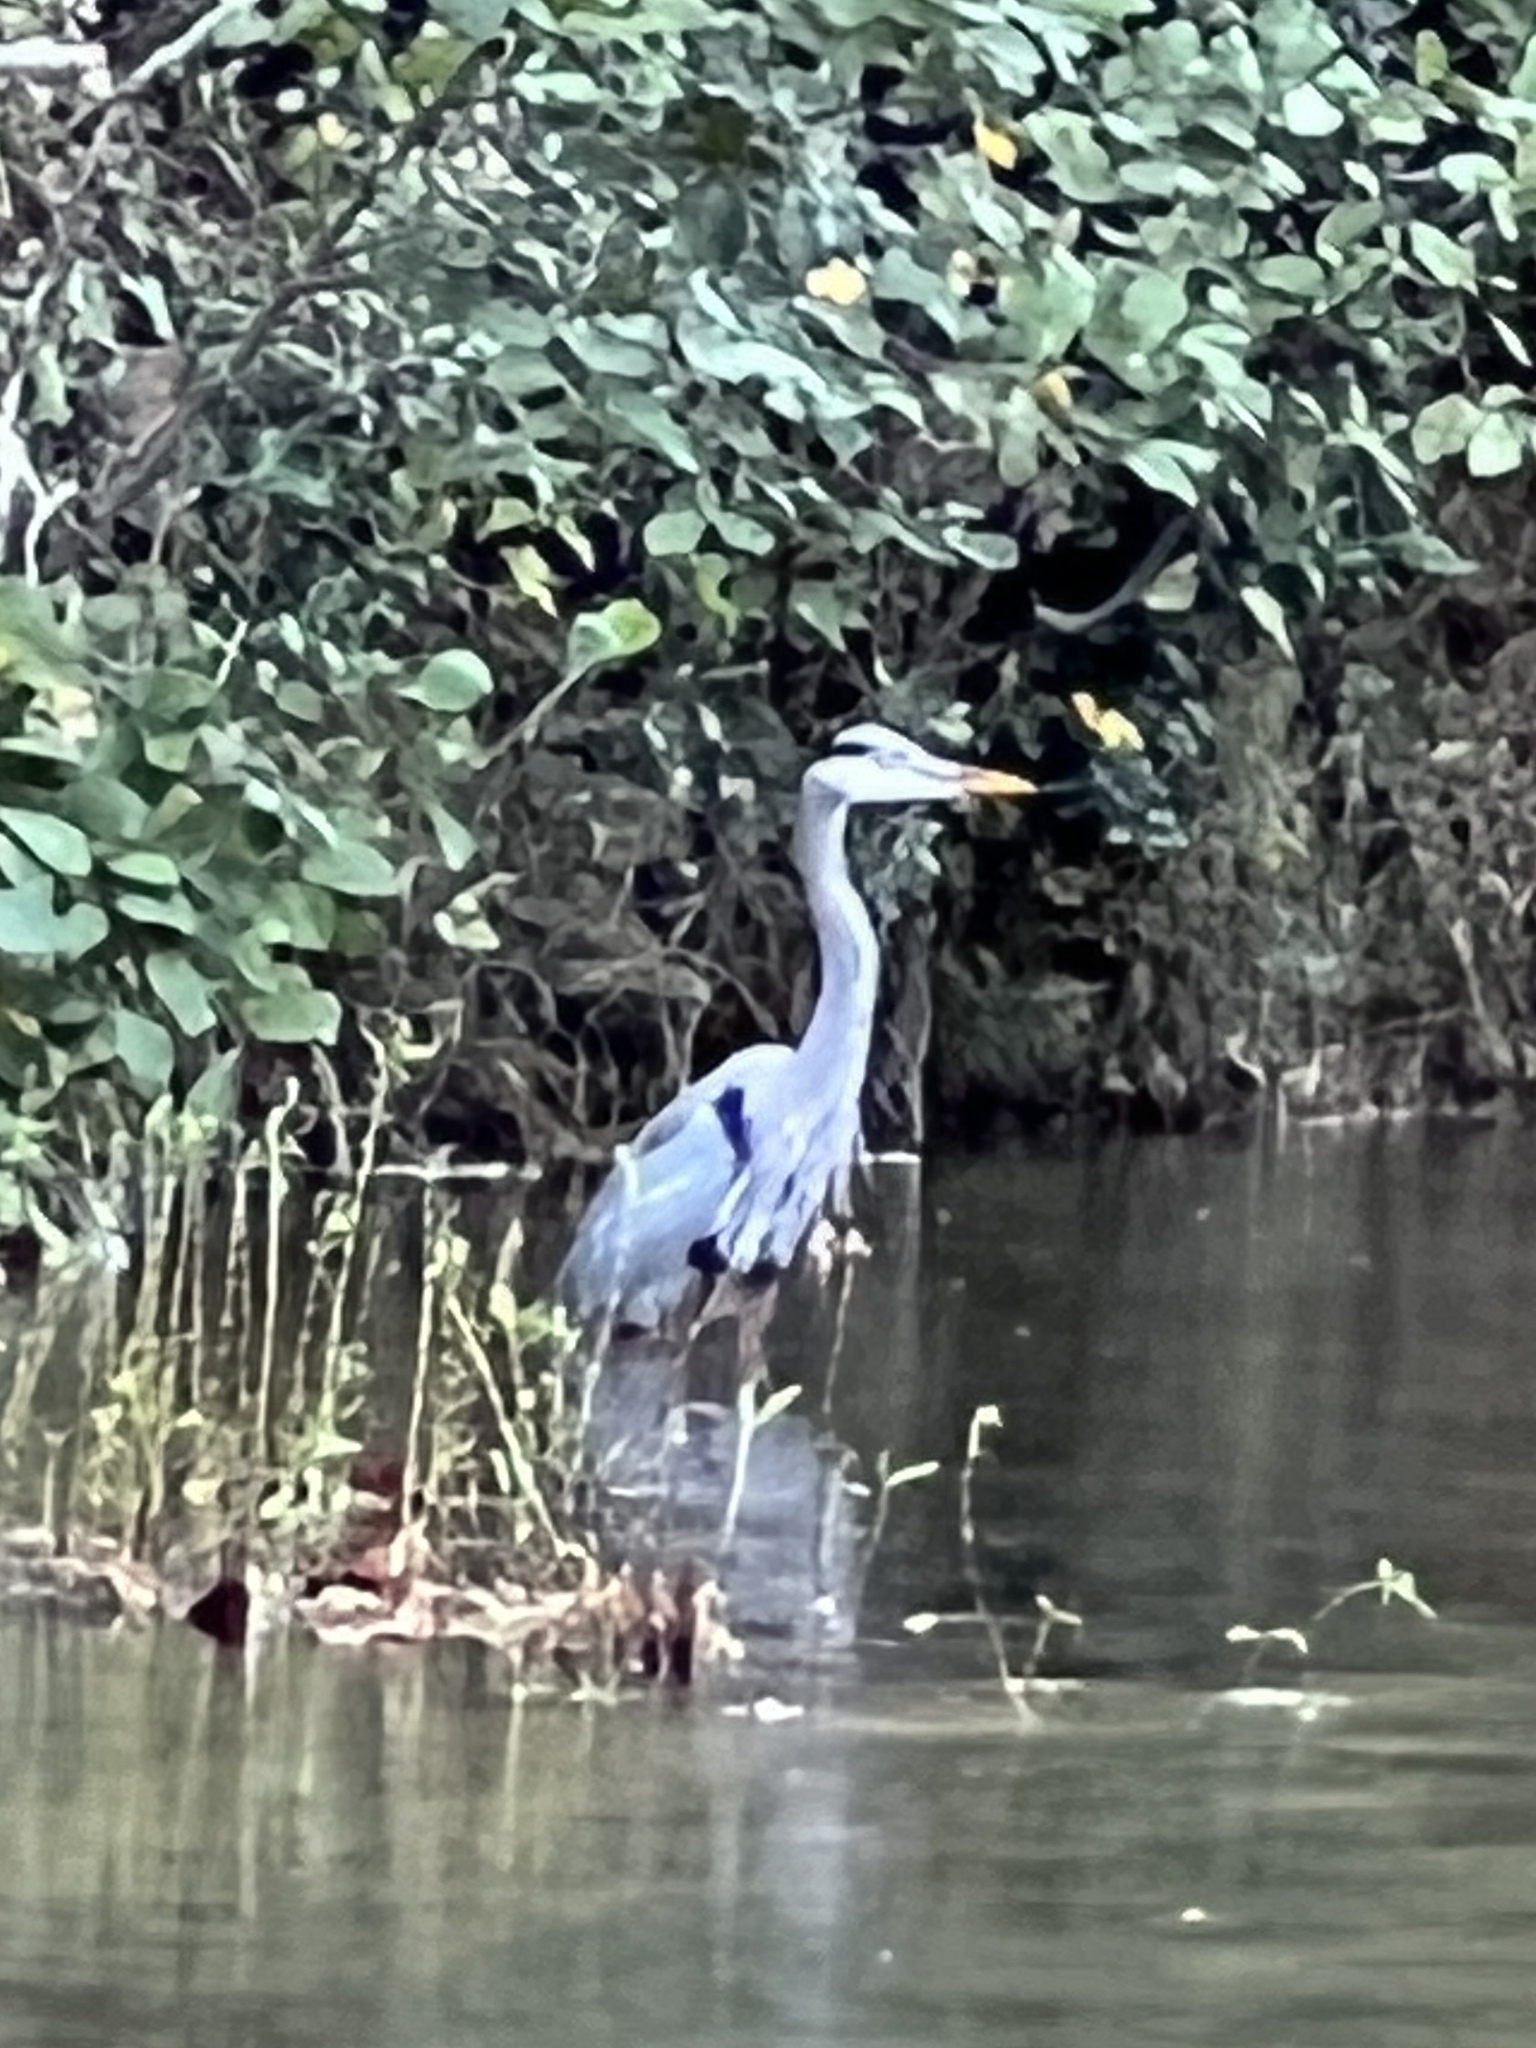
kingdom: Animalia
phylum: Chordata
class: Aves
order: Pelecaniformes
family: Ardeidae
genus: Ardea
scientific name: Ardea herodias
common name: Great blue heron
